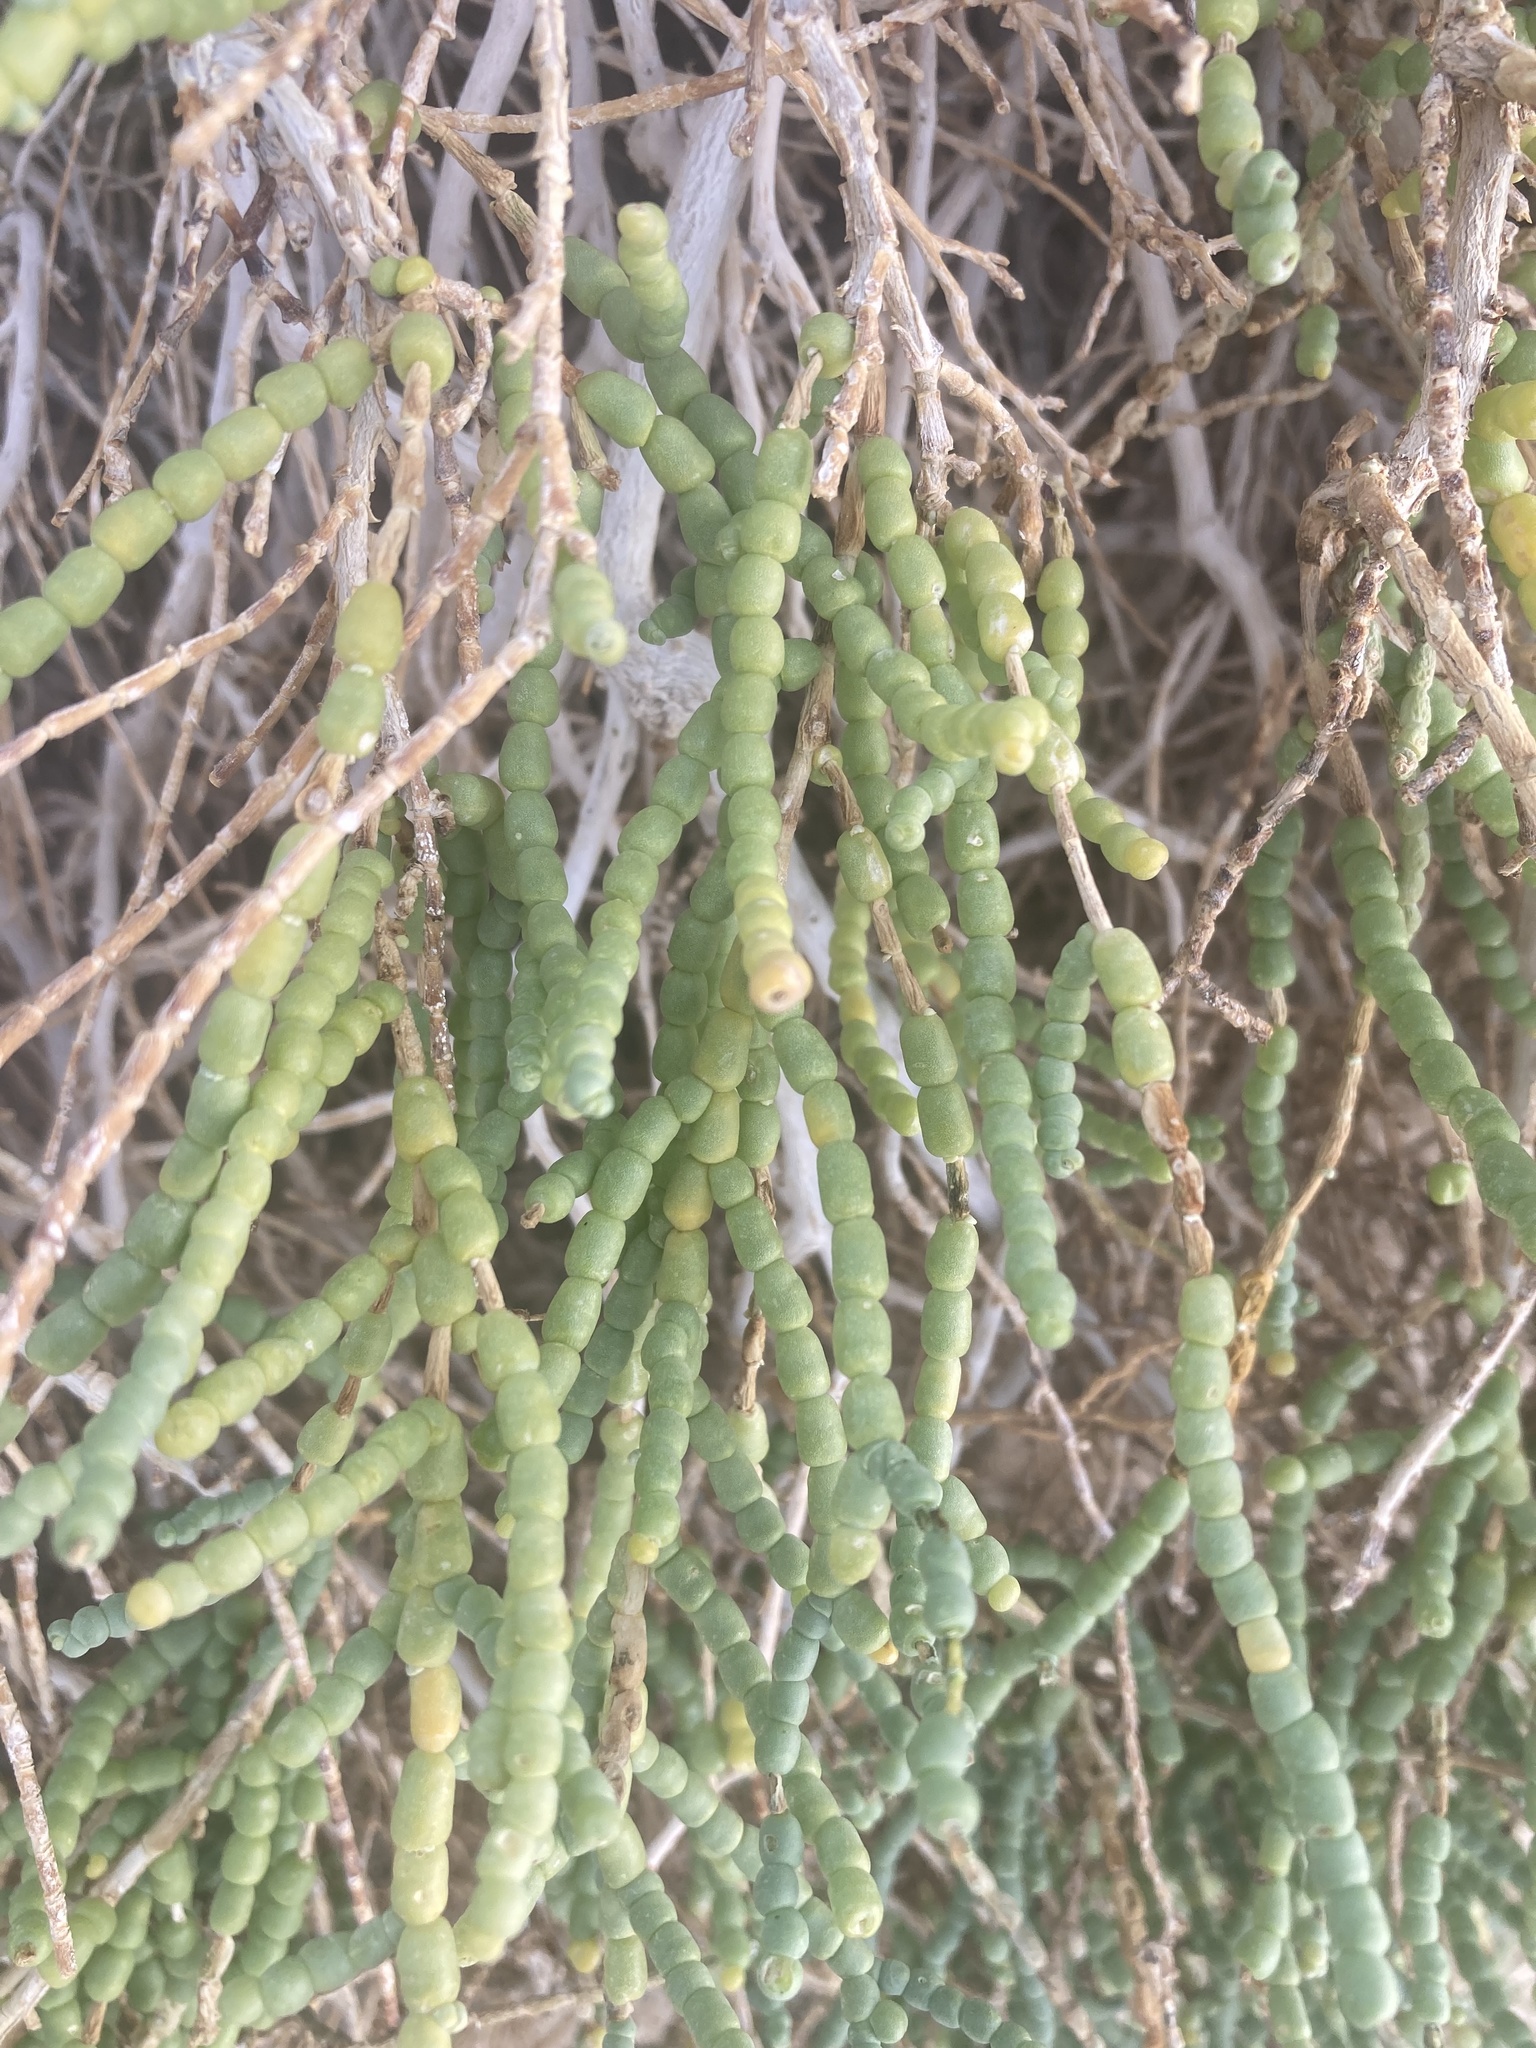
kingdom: Plantae
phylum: Tracheophyta
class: Magnoliopsida
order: Caryophyllales
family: Amaranthaceae
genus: Allenrolfea
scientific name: Allenrolfea occidentalis
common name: Iodine-bush
